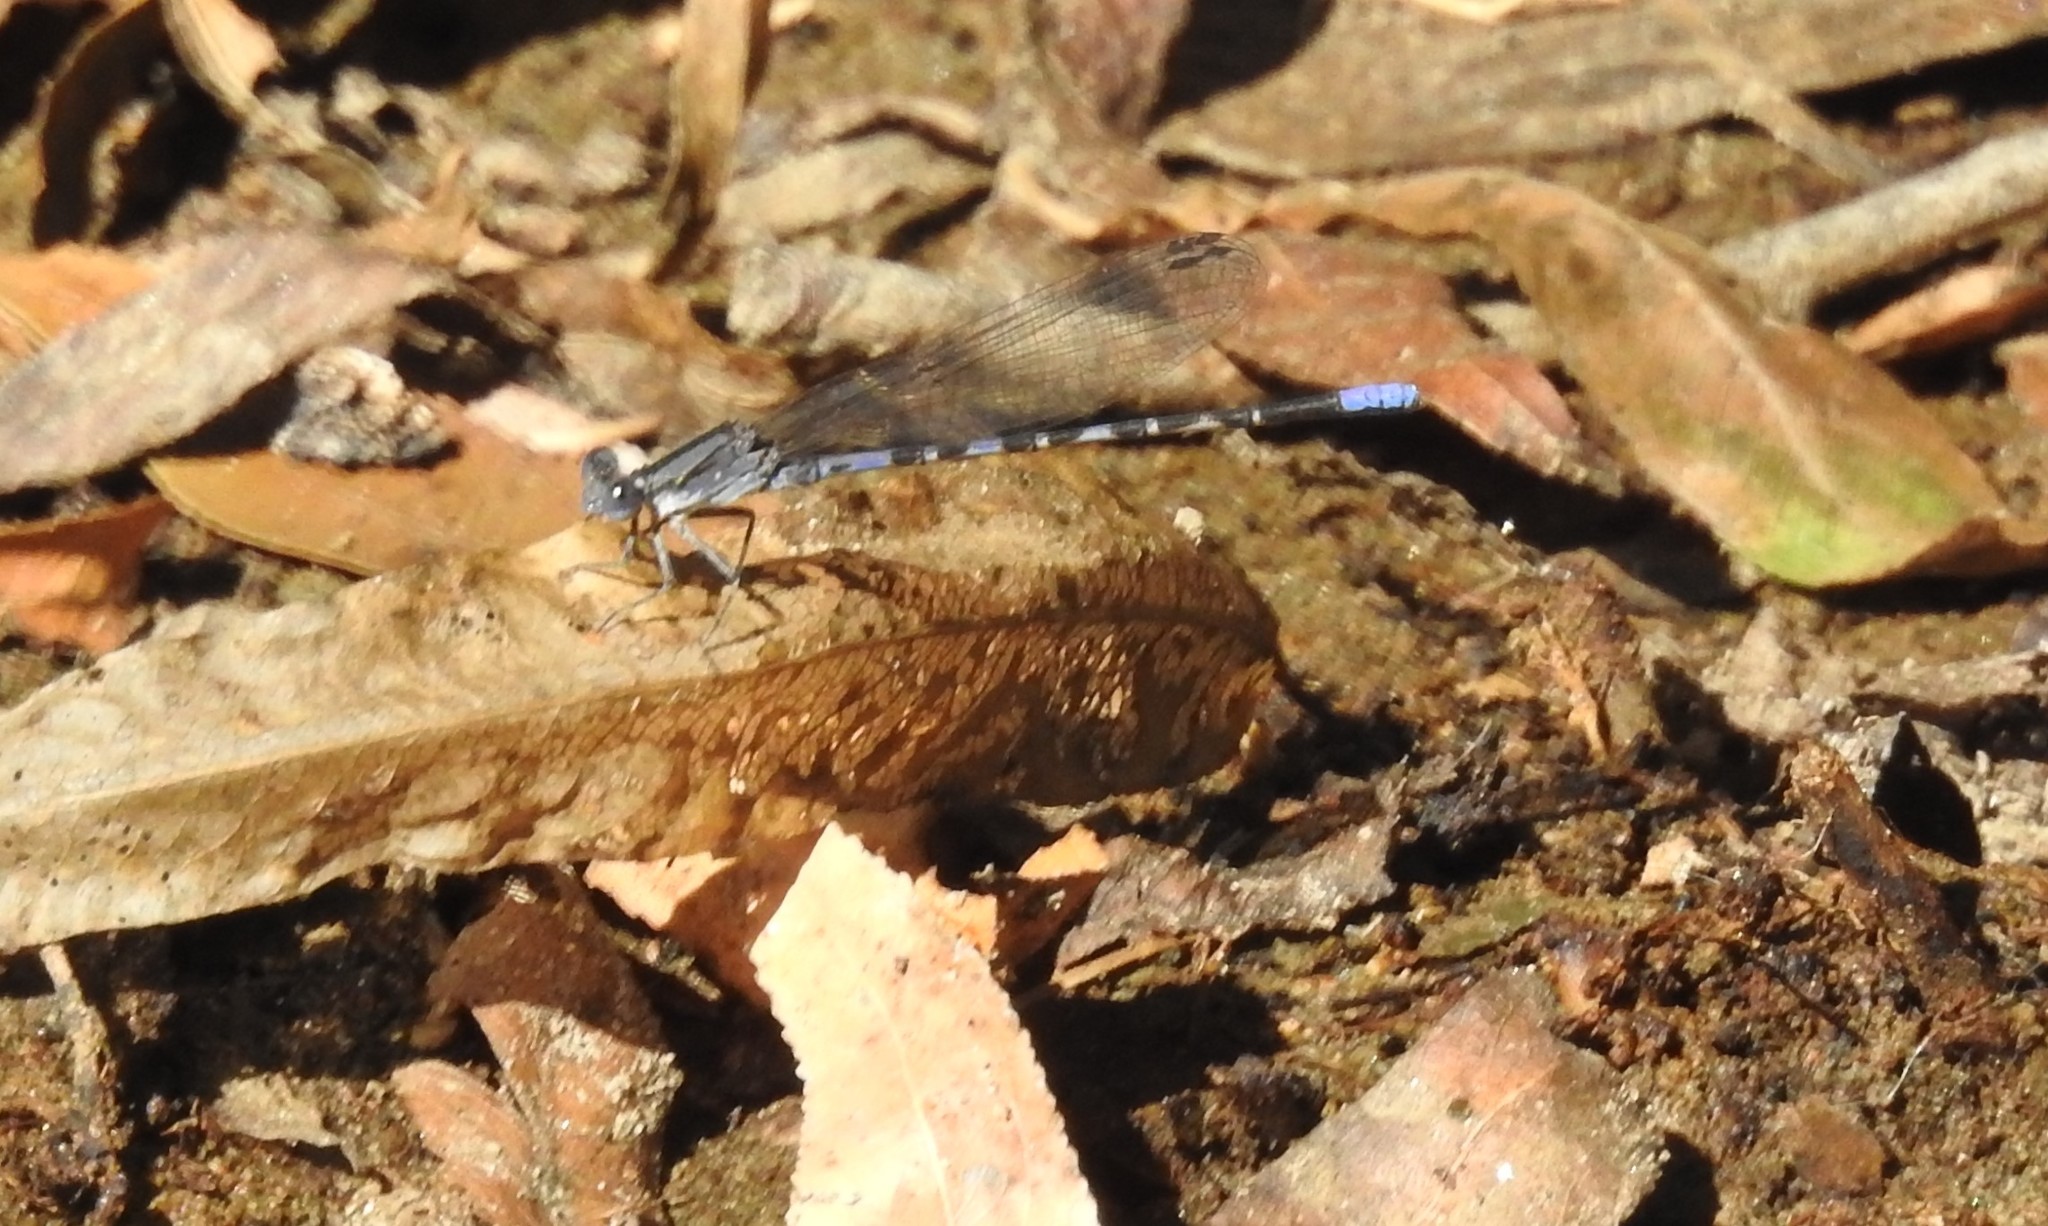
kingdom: Animalia
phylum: Arthropoda
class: Insecta
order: Odonata
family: Coenagrionidae
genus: Argia
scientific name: Argia immunda
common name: Kiowa dancer
